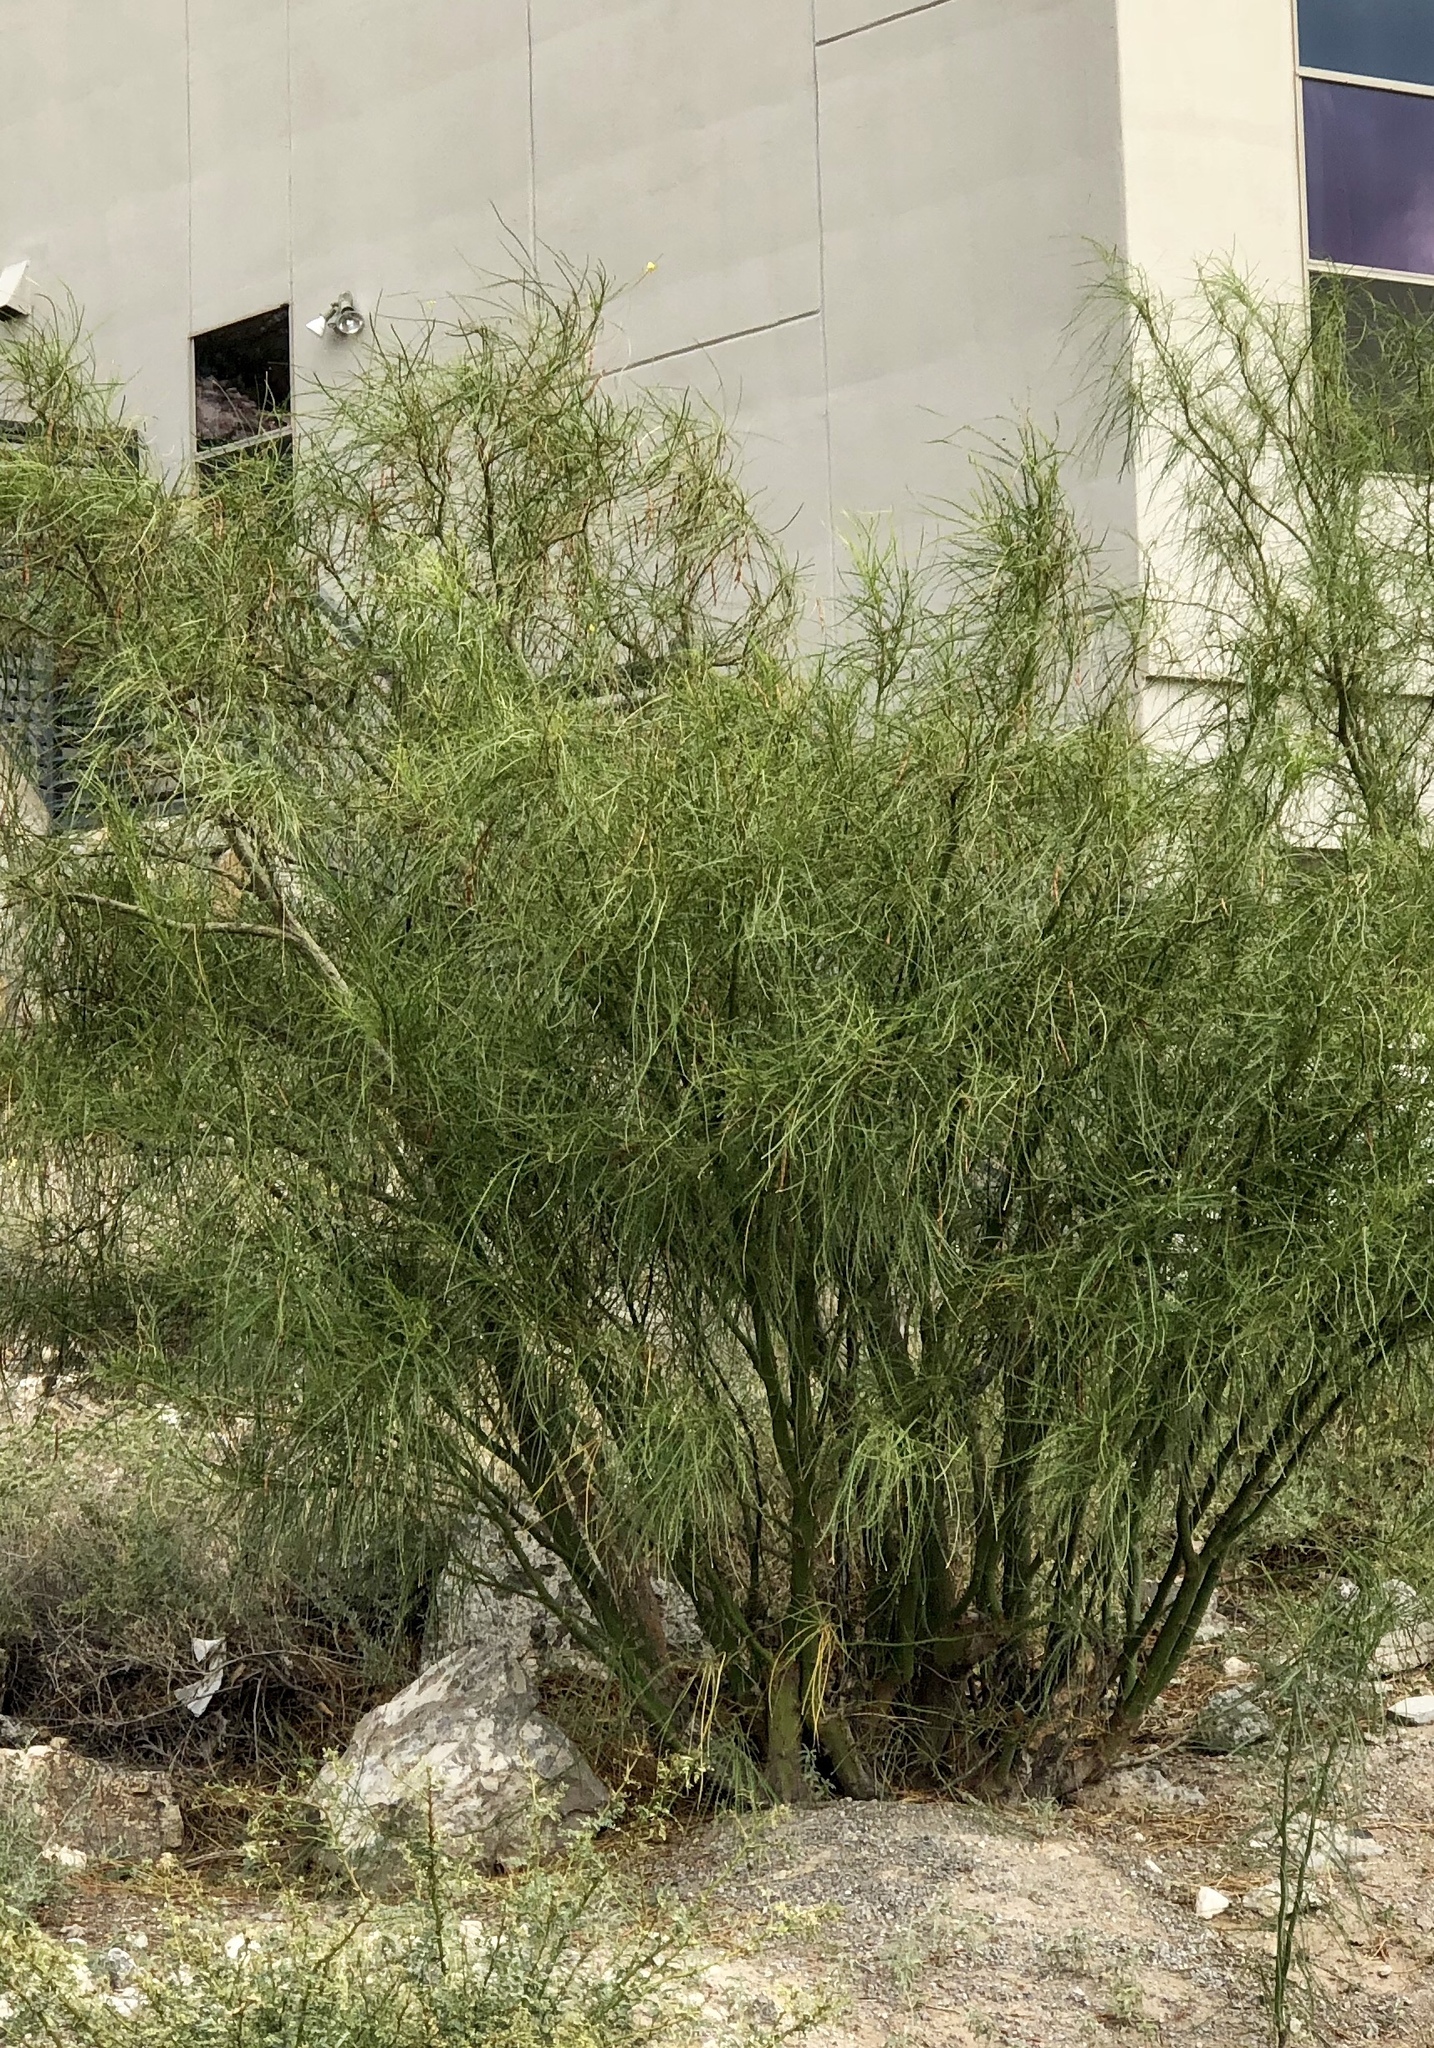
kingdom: Plantae
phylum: Tracheophyta
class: Magnoliopsida
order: Fabales
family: Fabaceae
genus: Parkinsonia
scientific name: Parkinsonia aculeata
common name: Jerusalem thorn
